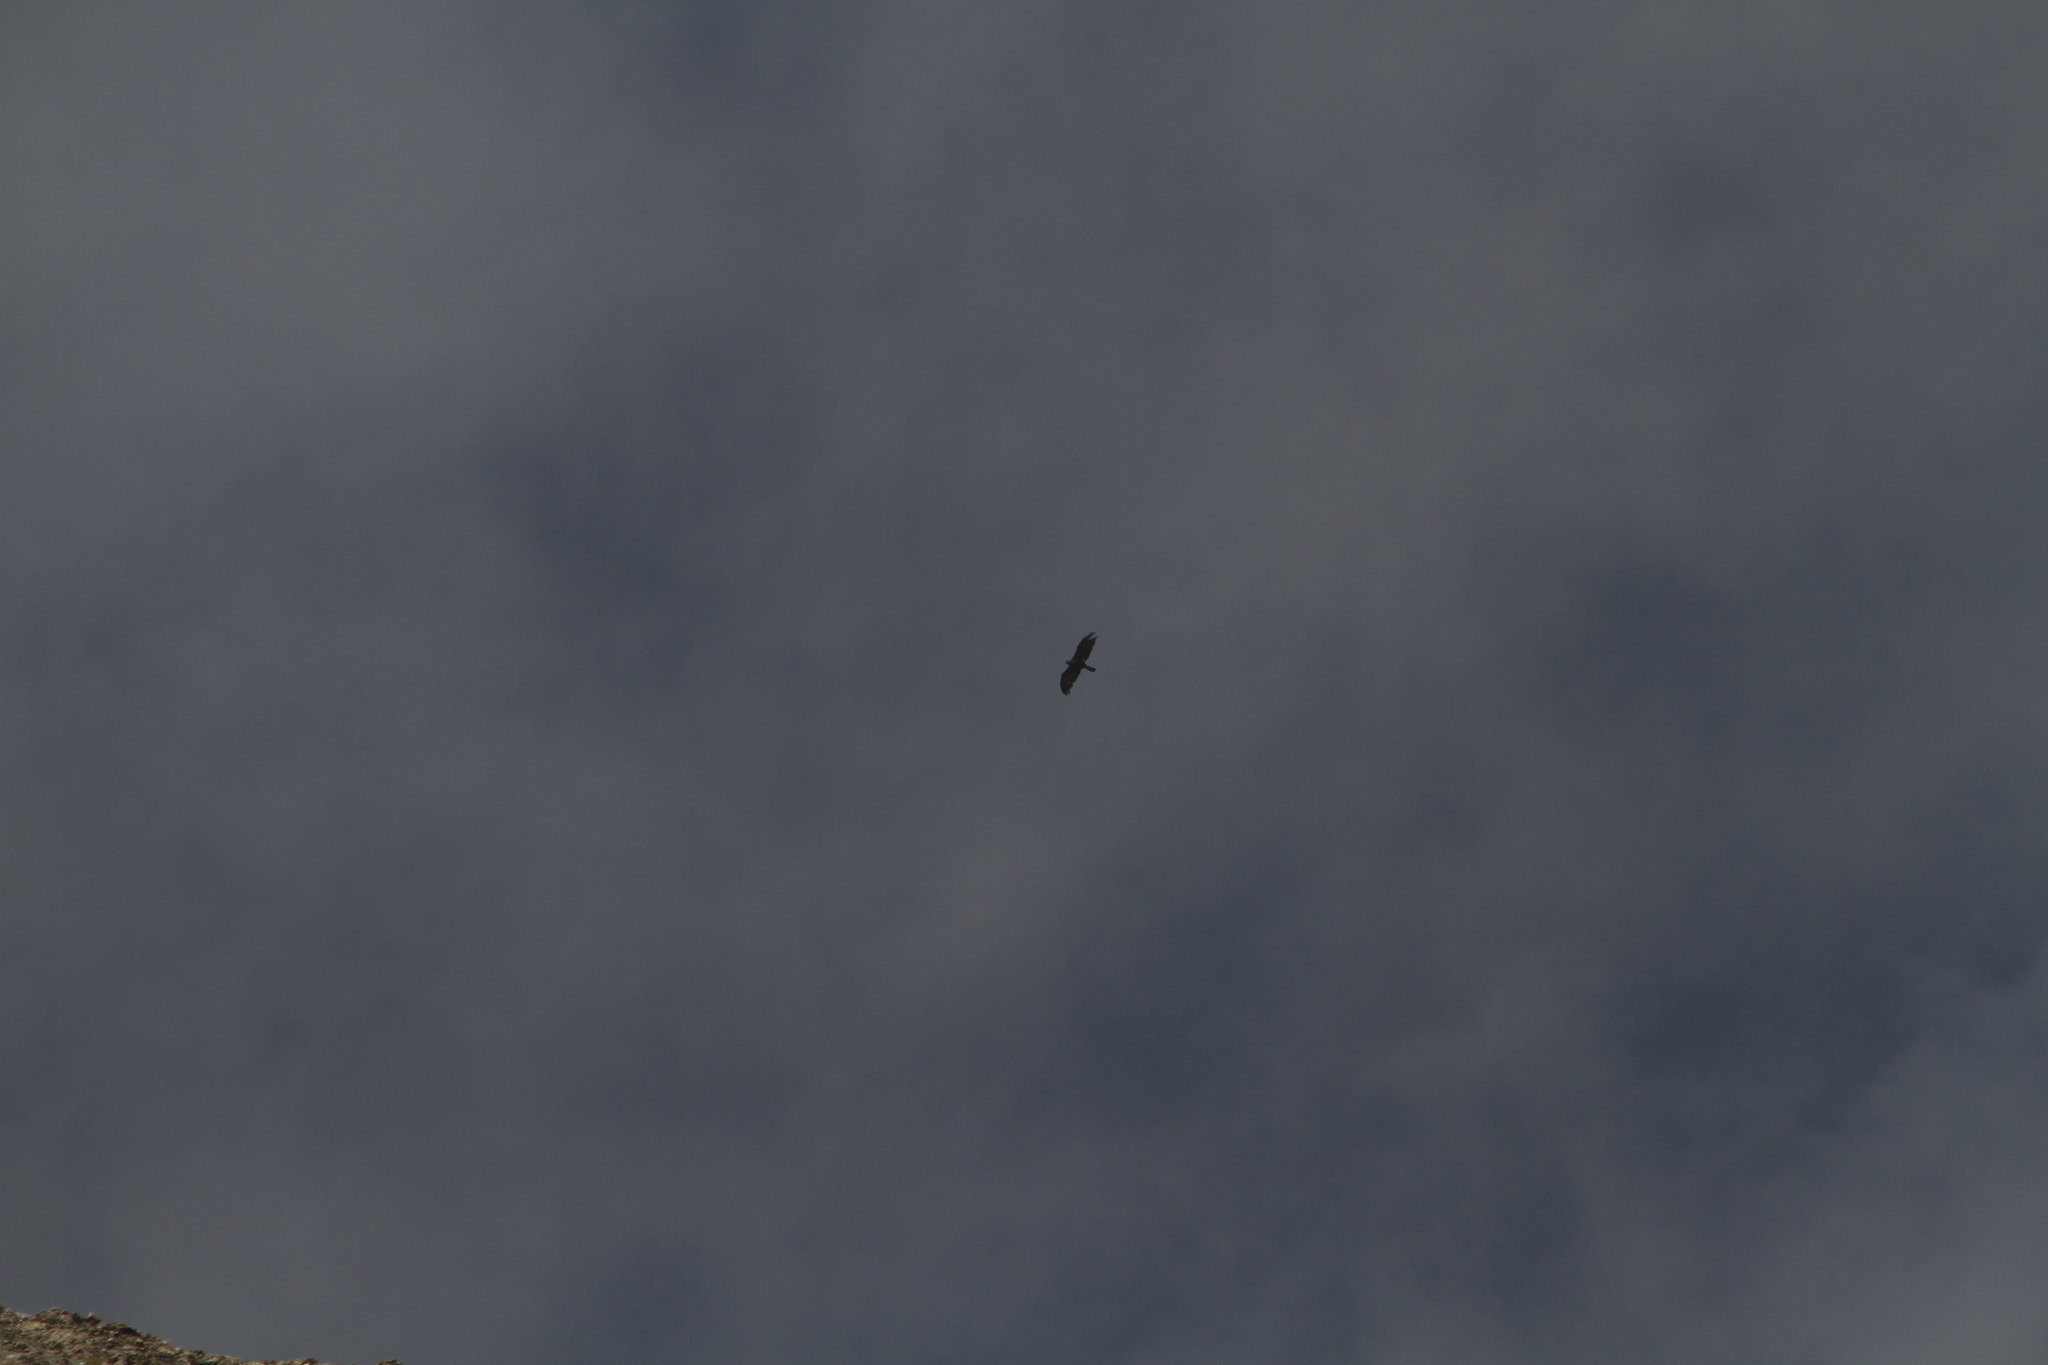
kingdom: Animalia
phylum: Chordata
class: Aves
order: Accipitriformes
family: Accipitridae
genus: Aquila
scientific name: Aquila chrysaetos
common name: Golden eagle
